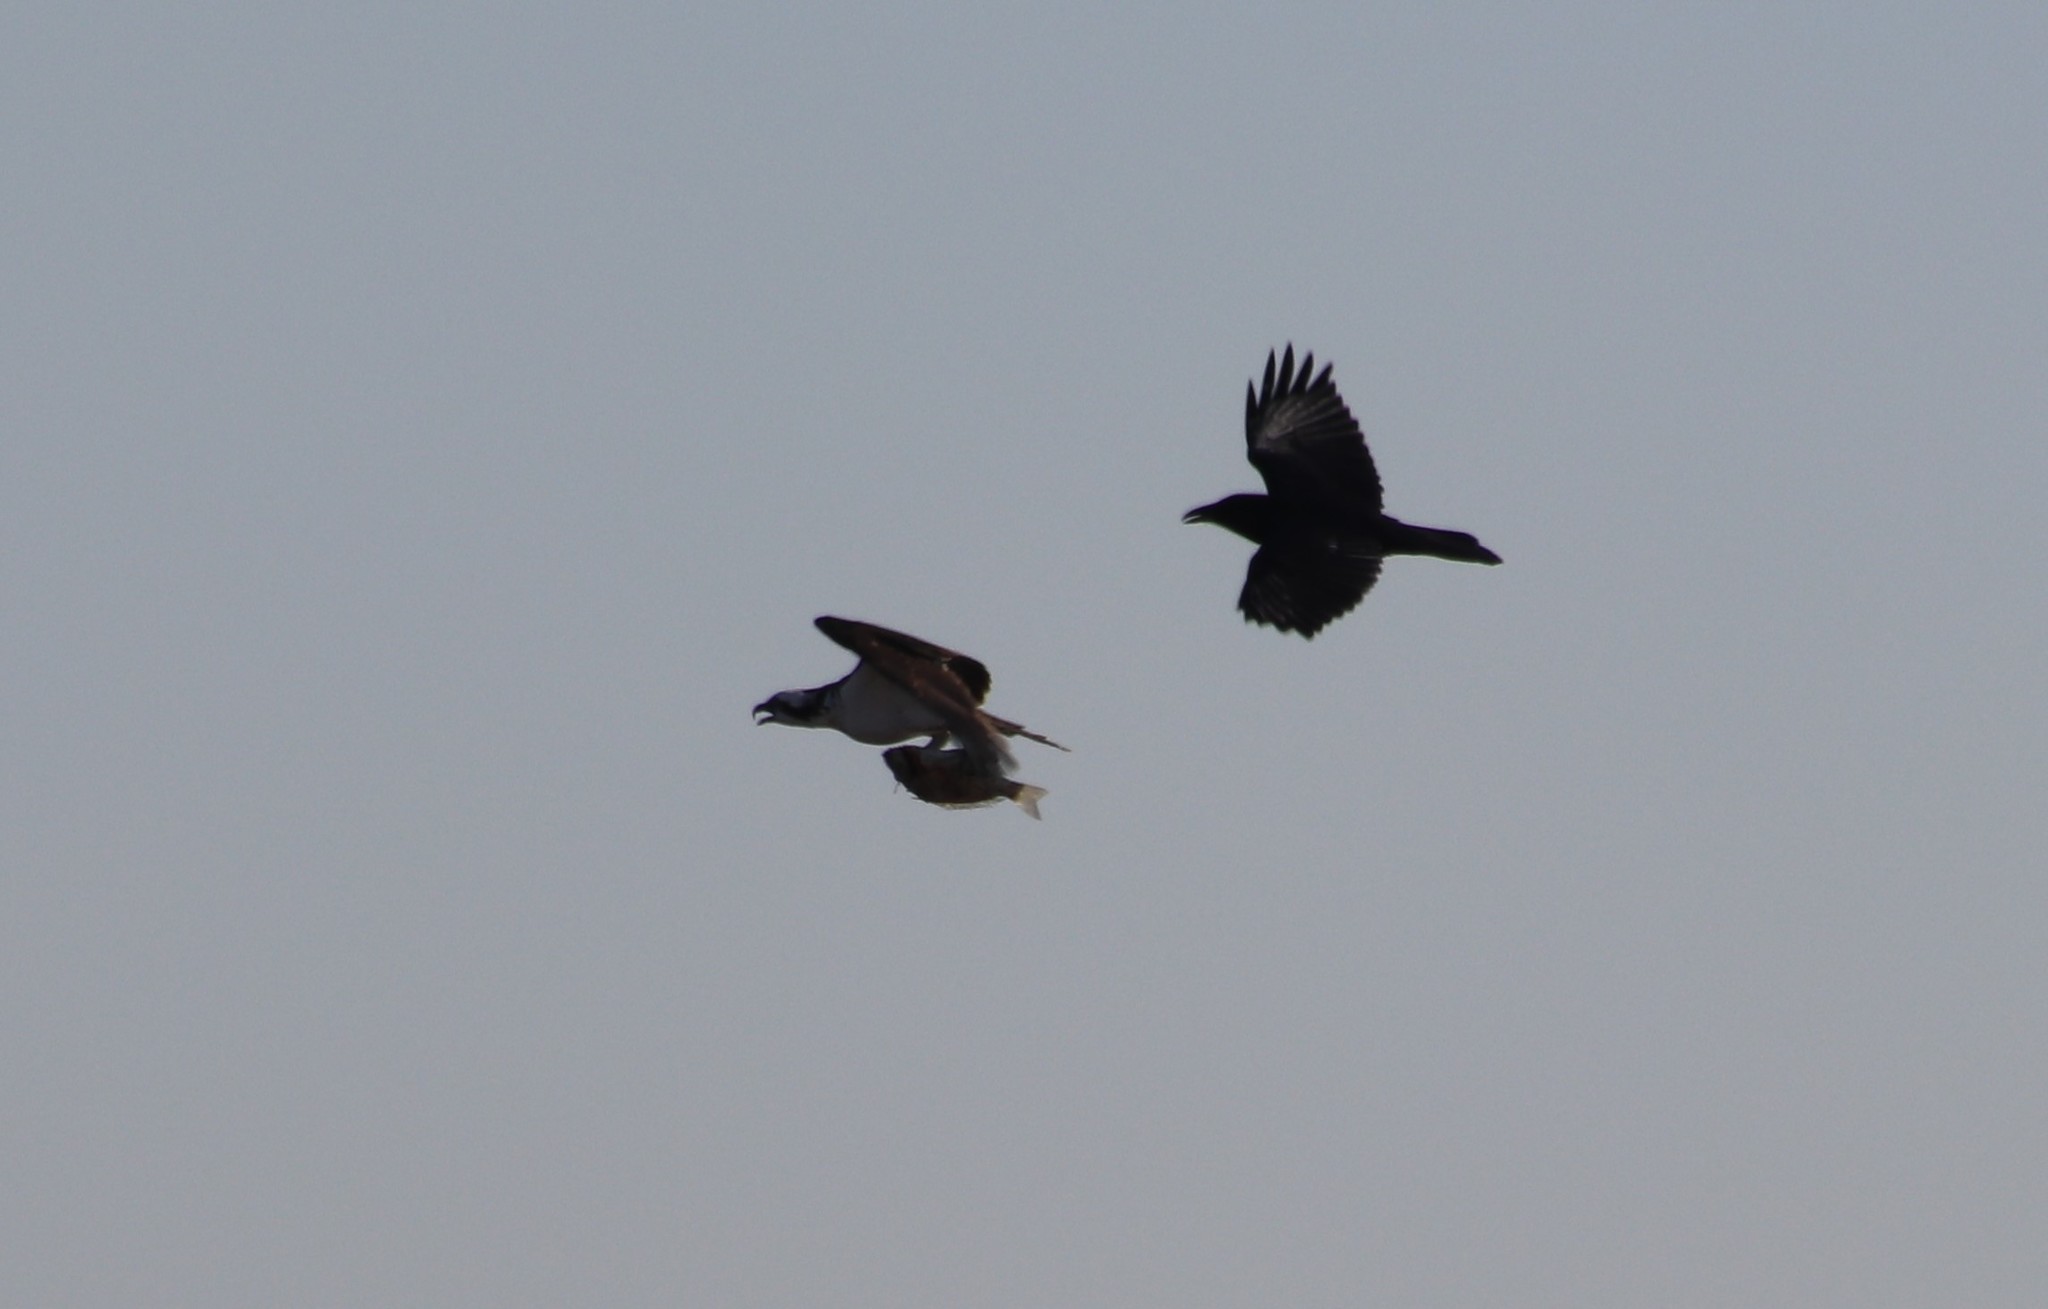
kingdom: Animalia
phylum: Chordata
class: Aves
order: Accipitriformes
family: Pandionidae
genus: Pandion
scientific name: Pandion haliaetus
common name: Osprey
